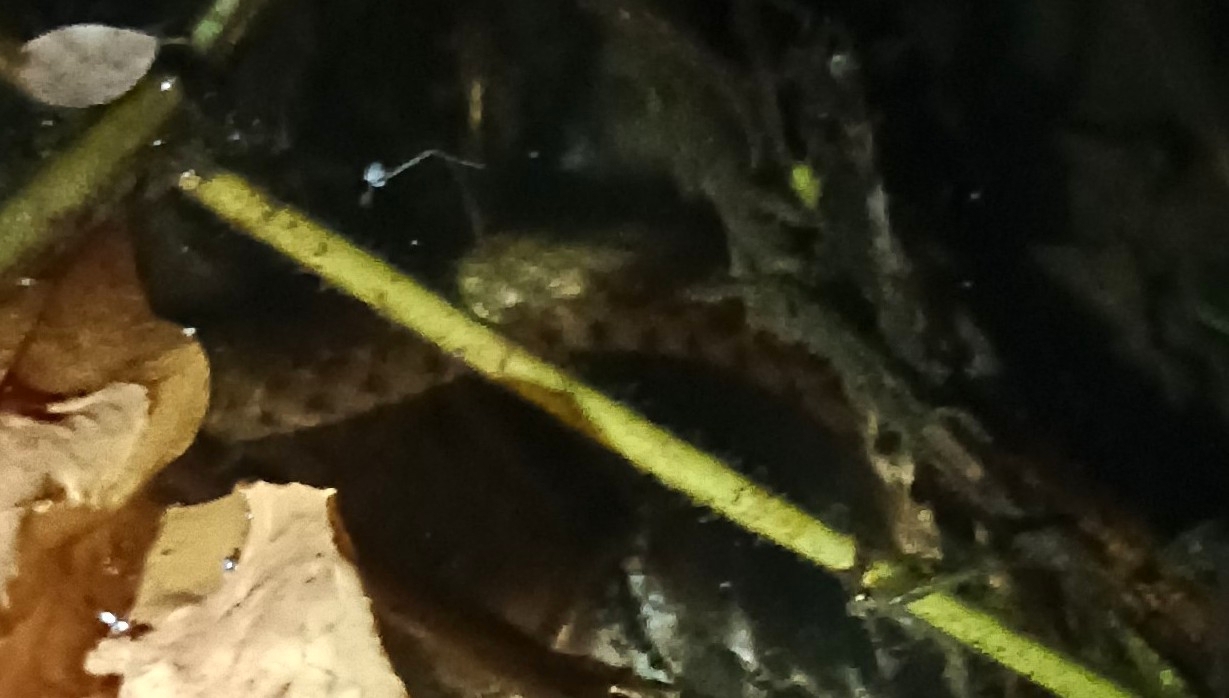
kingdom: Animalia
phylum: Chordata
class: Squamata
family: Colubridae
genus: Fowlea
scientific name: Fowlea piscator
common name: Asiatic water snake
